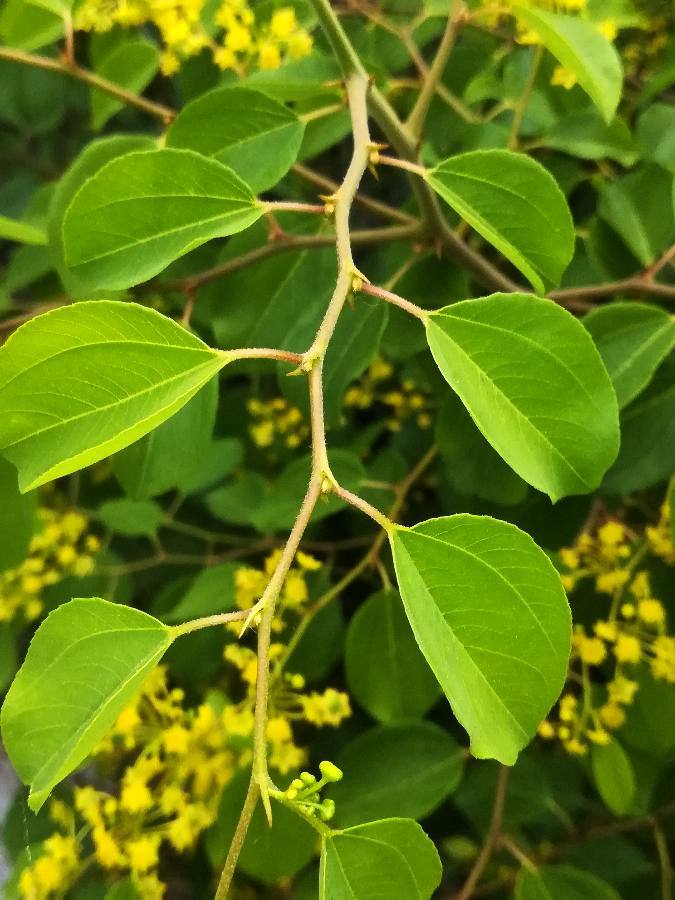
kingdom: Plantae
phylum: Tracheophyta
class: Magnoliopsida
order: Rosales
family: Rhamnaceae
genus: Paliurus
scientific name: Paliurus spina-christi
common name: Jeruselem thorn
